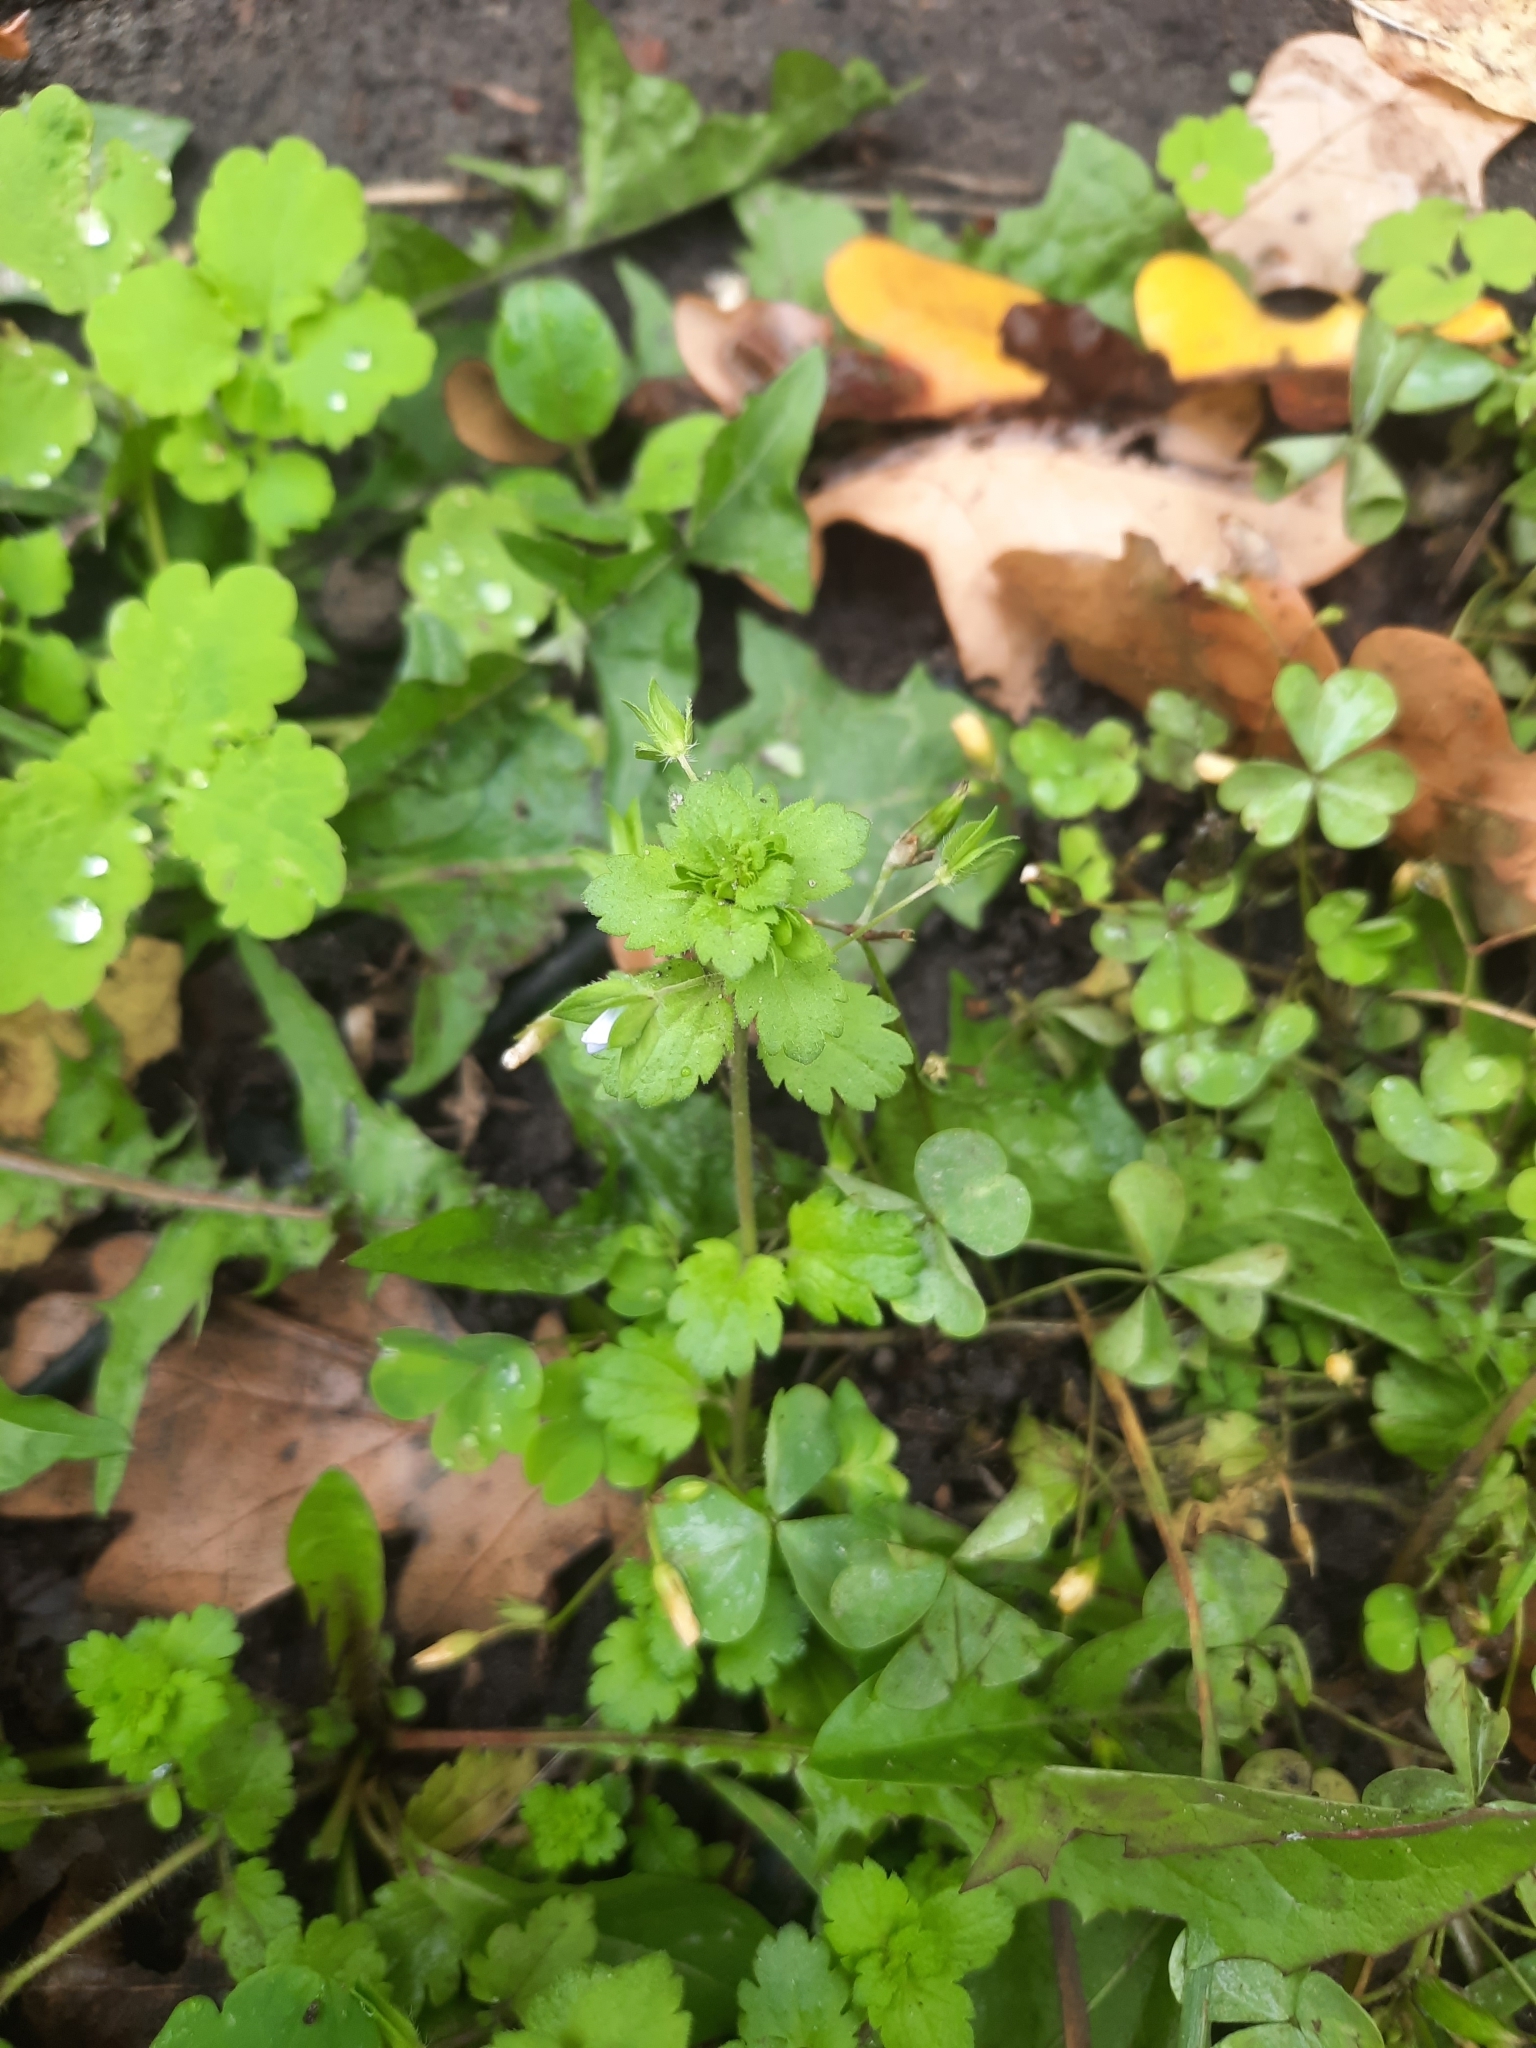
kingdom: Plantae
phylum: Tracheophyta
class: Magnoliopsida
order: Lamiales
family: Plantaginaceae
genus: Veronica
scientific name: Veronica persica
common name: Common field-speedwell
